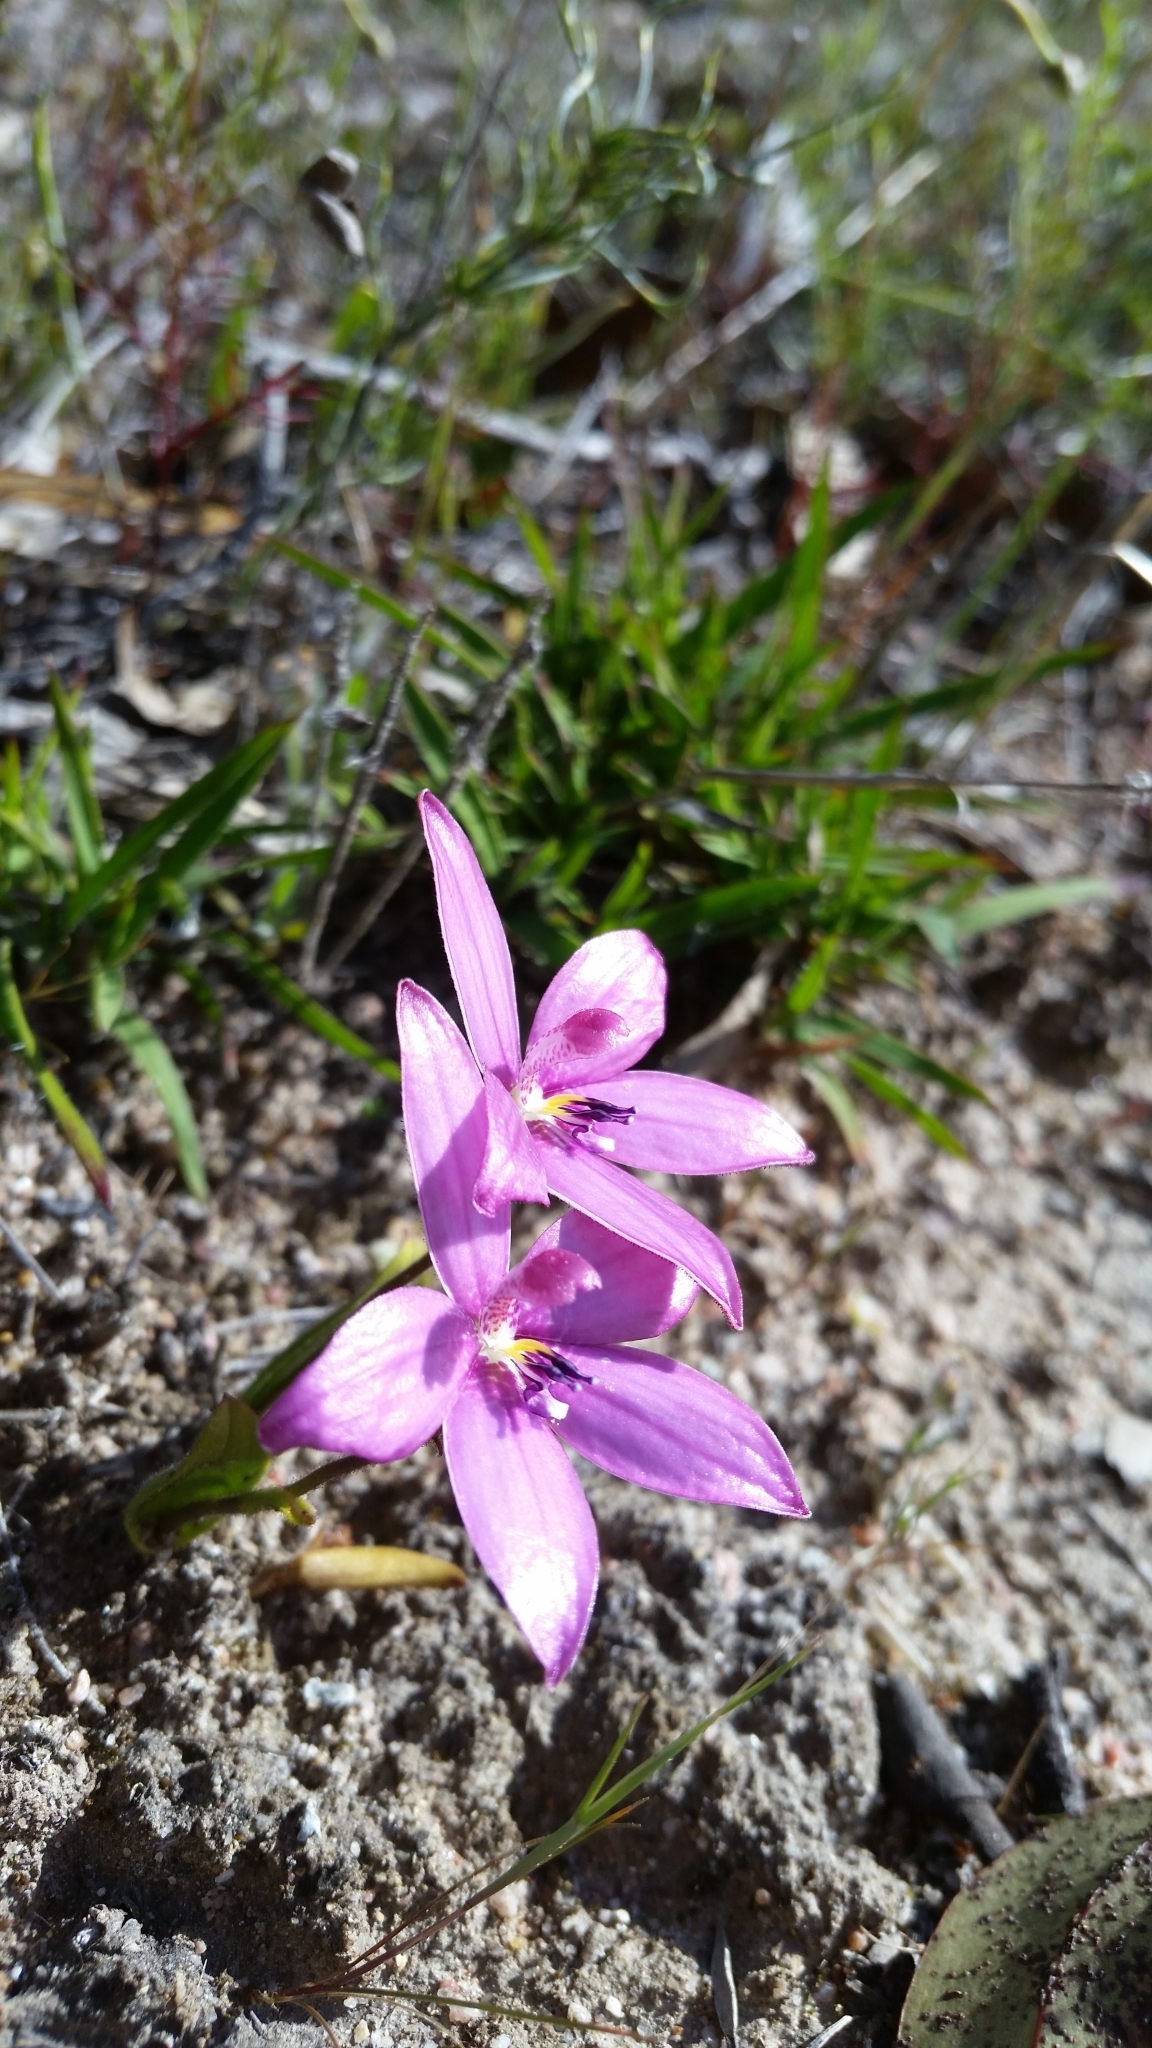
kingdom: Plantae
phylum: Tracheophyta
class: Liliopsida
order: Asparagales
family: Orchidaceae
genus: Caladenia
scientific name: Caladenia emarginata
